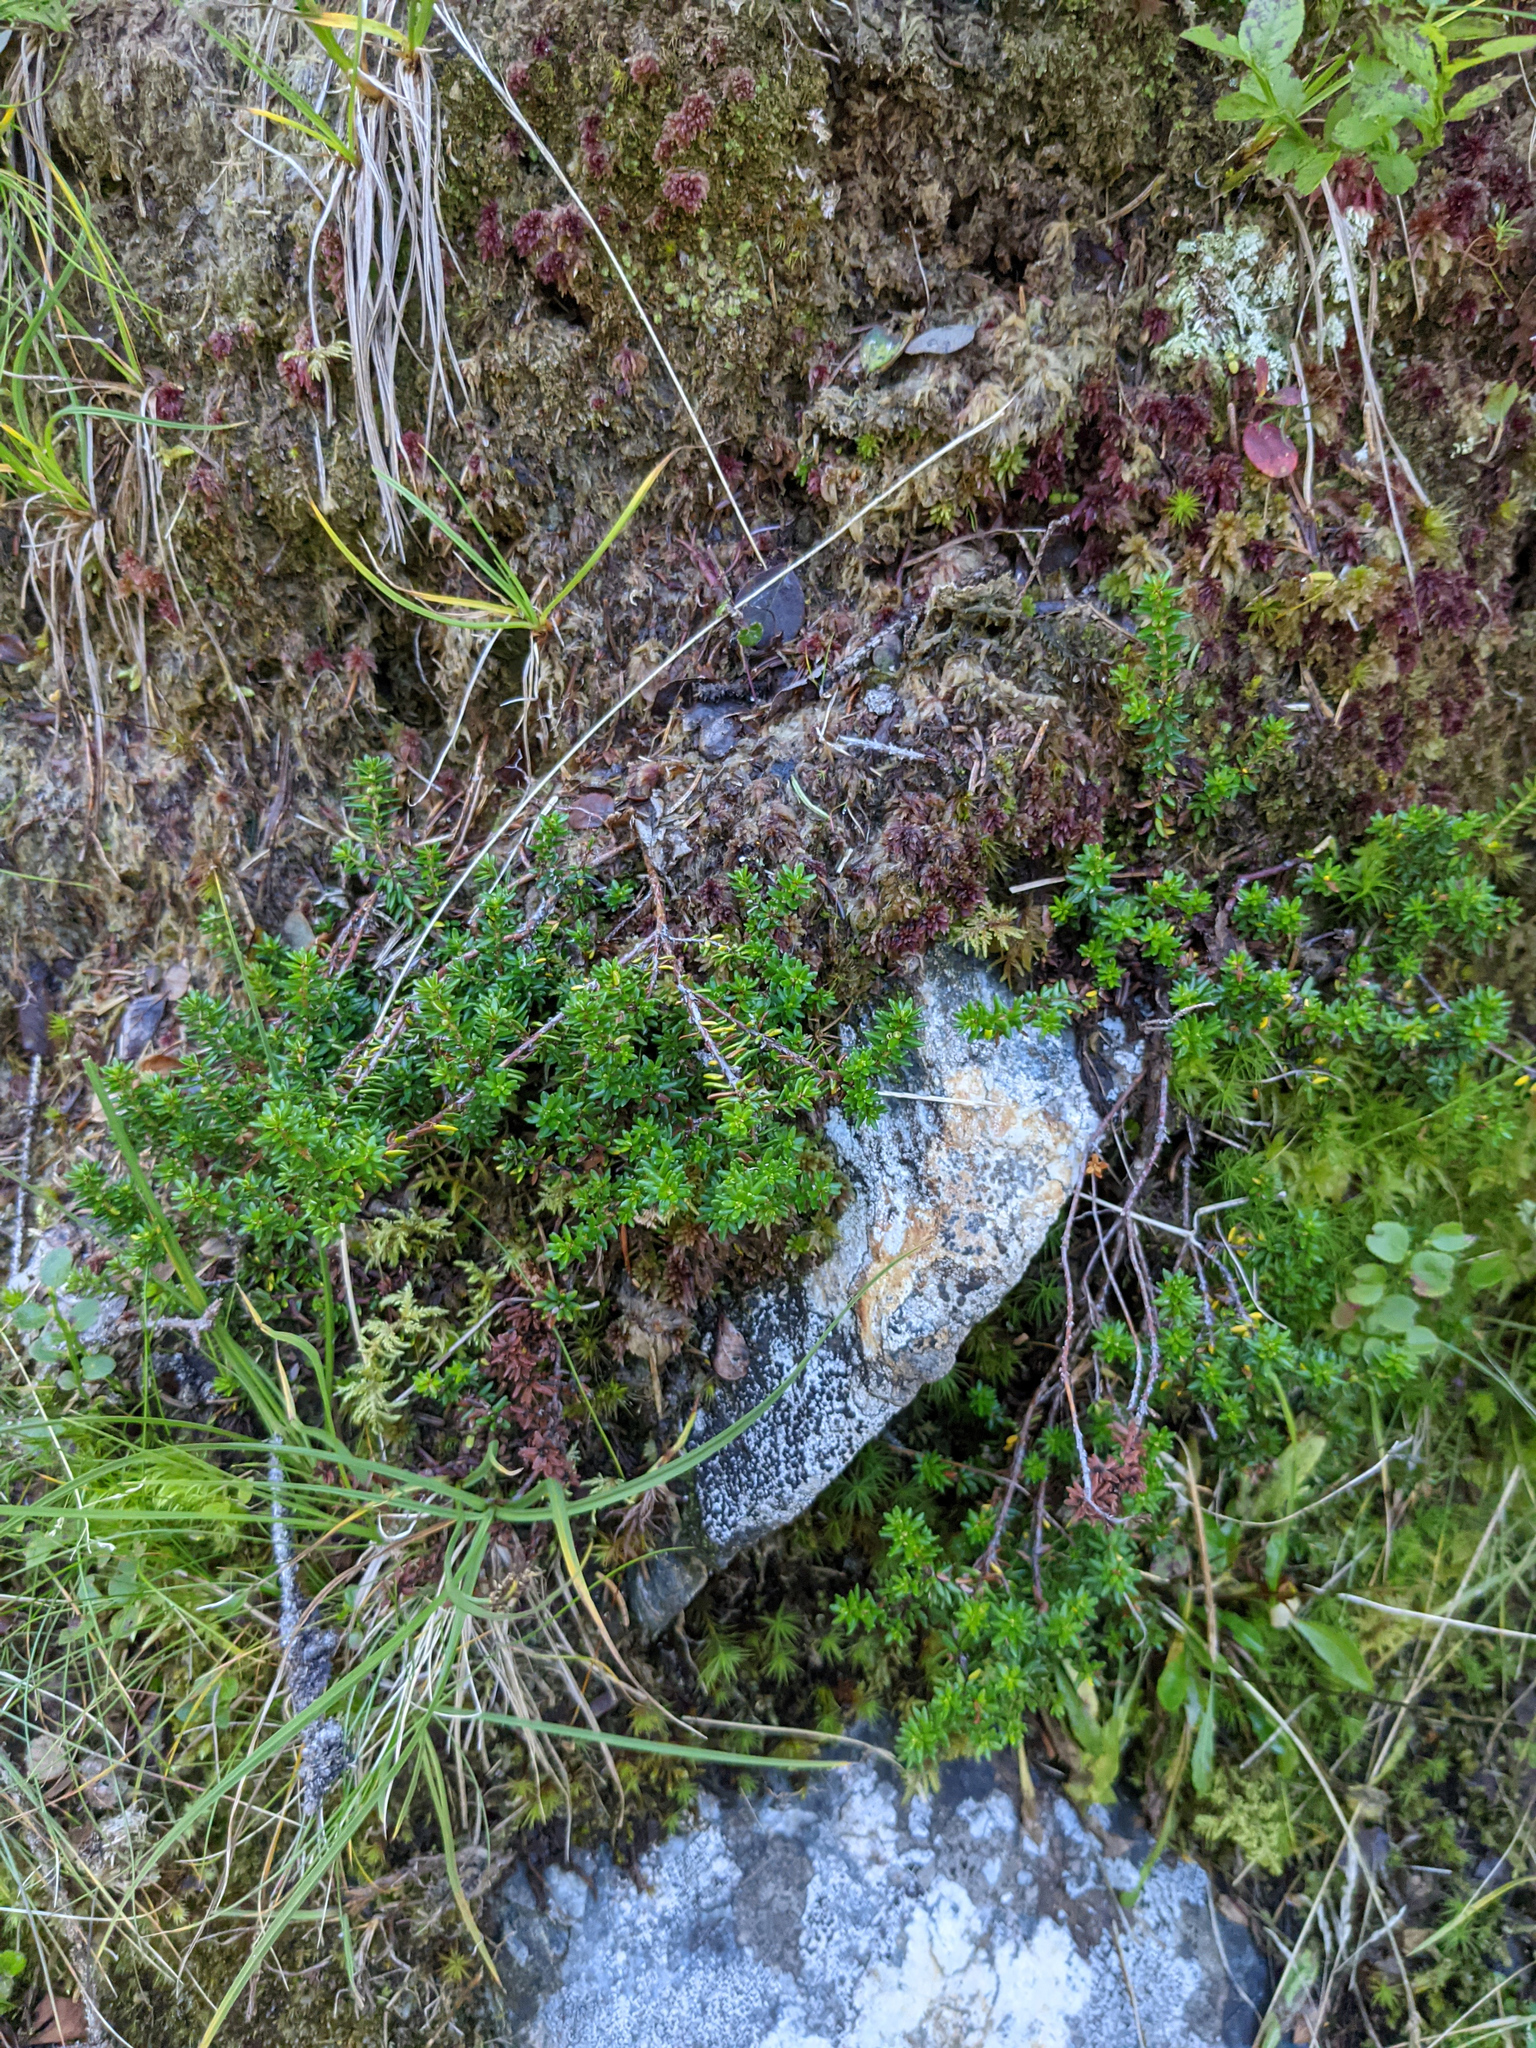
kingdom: Plantae
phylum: Tracheophyta
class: Magnoliopsida
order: Ericales
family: Ericaceae
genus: Empetrum
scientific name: Empetrum nigrum
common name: Black crowberry
